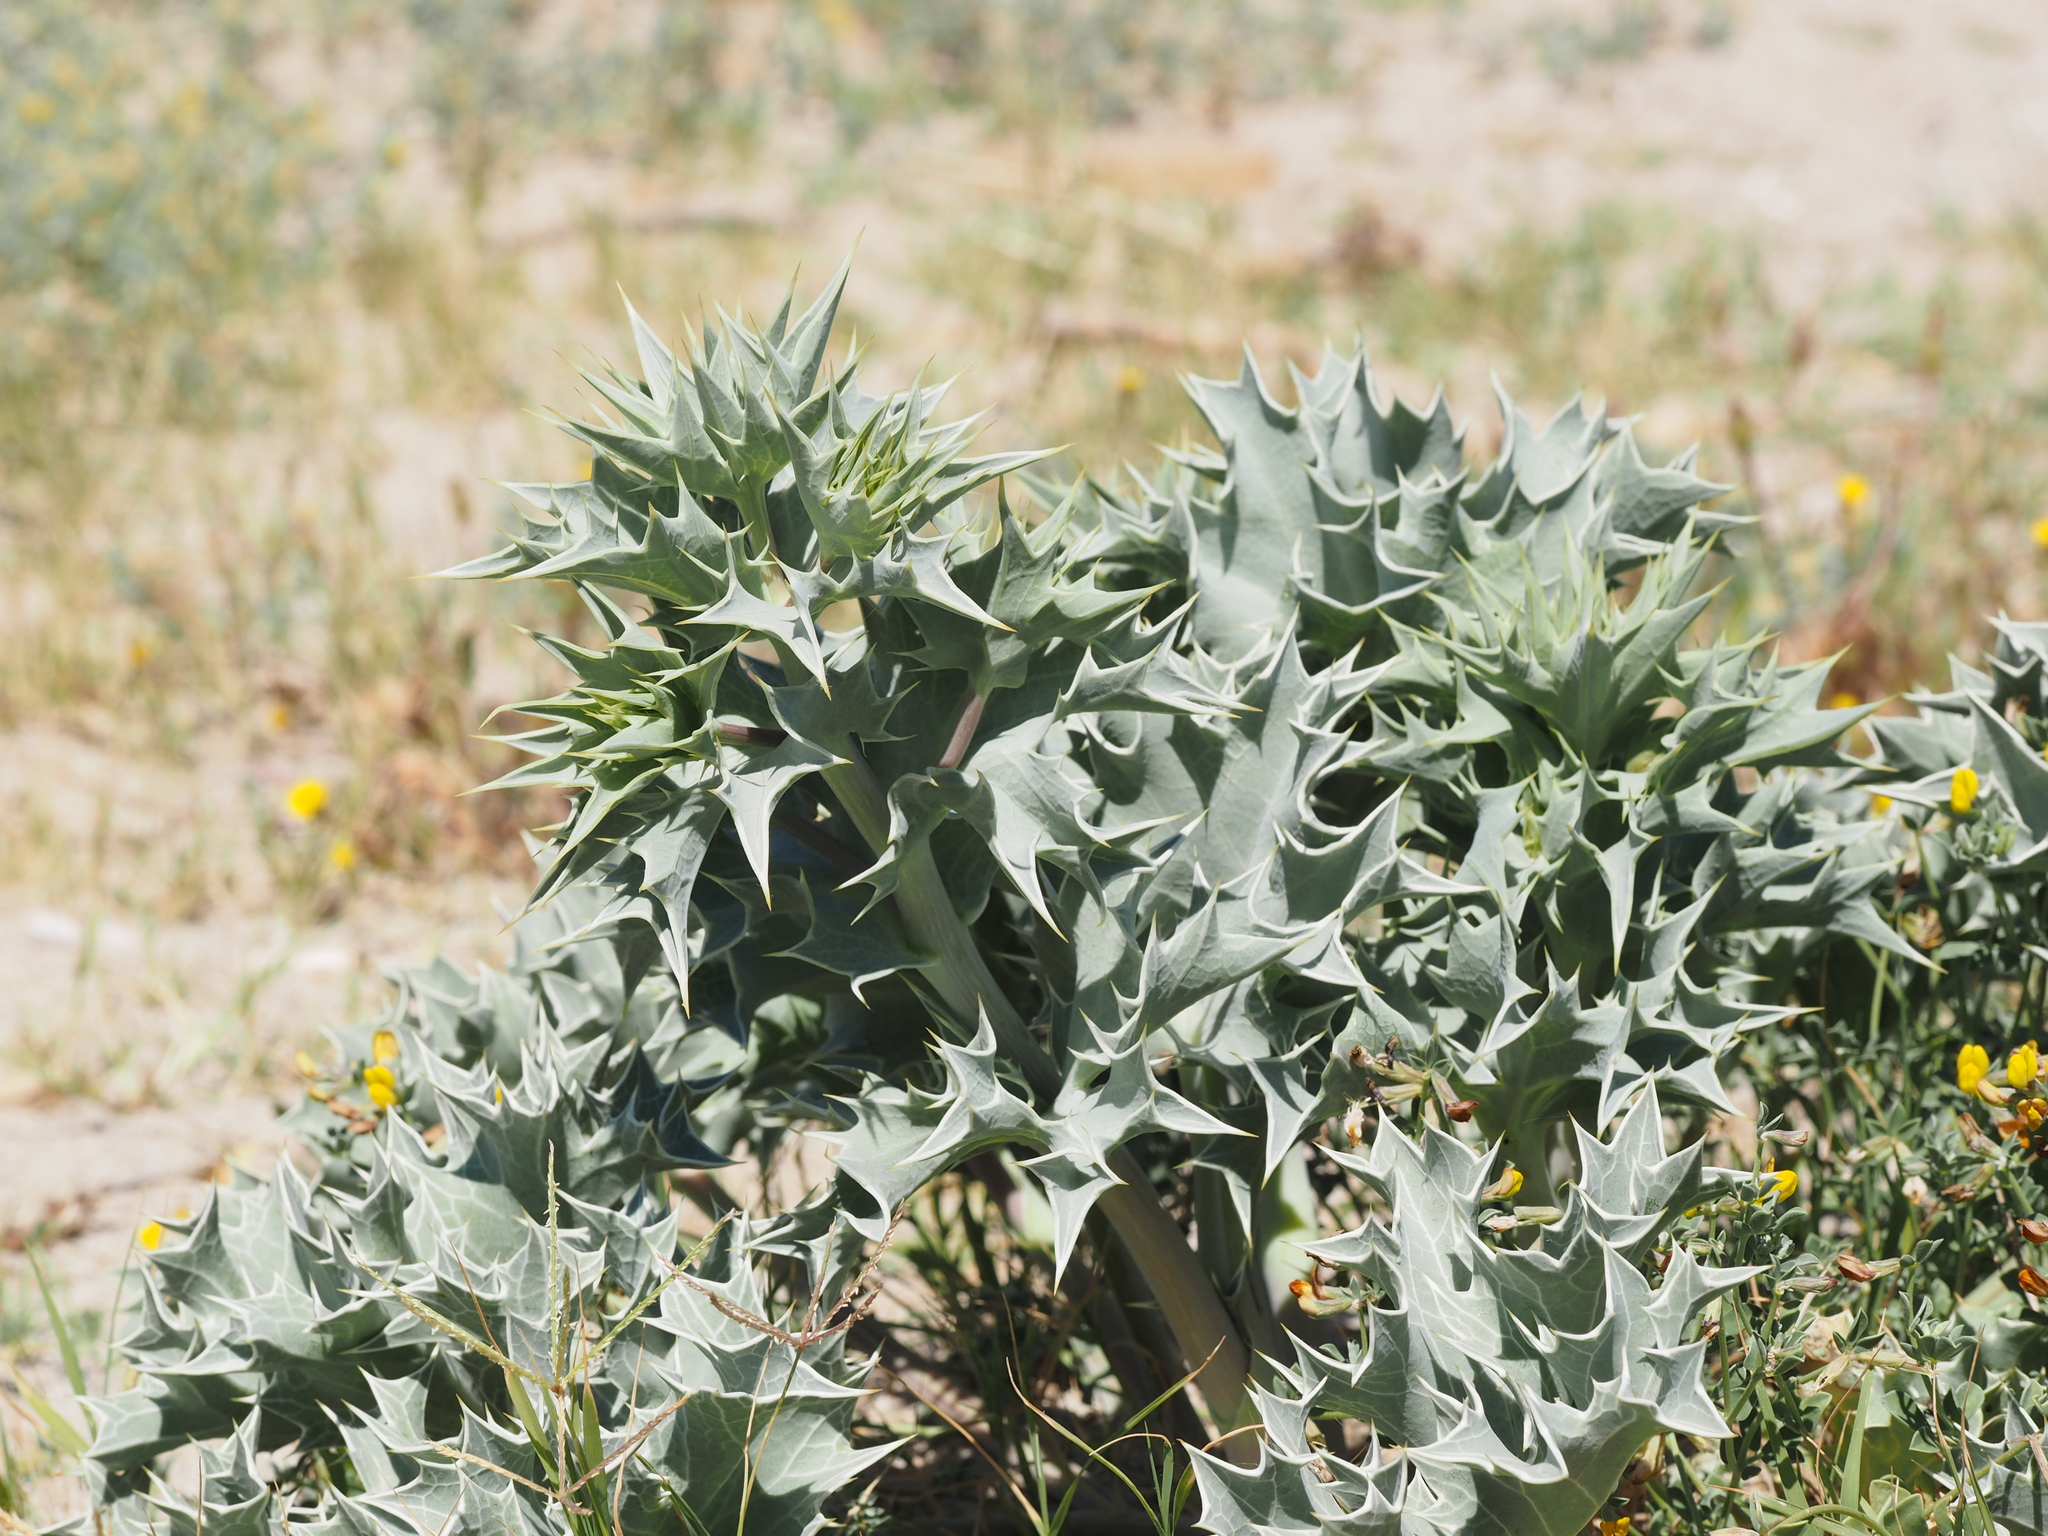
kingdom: Plantae
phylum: Tracheophyta
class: Magnoliopsida
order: Apiales
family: Apiaceae
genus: Eryngium
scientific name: Eryngium maritimum
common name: Sea-holly
